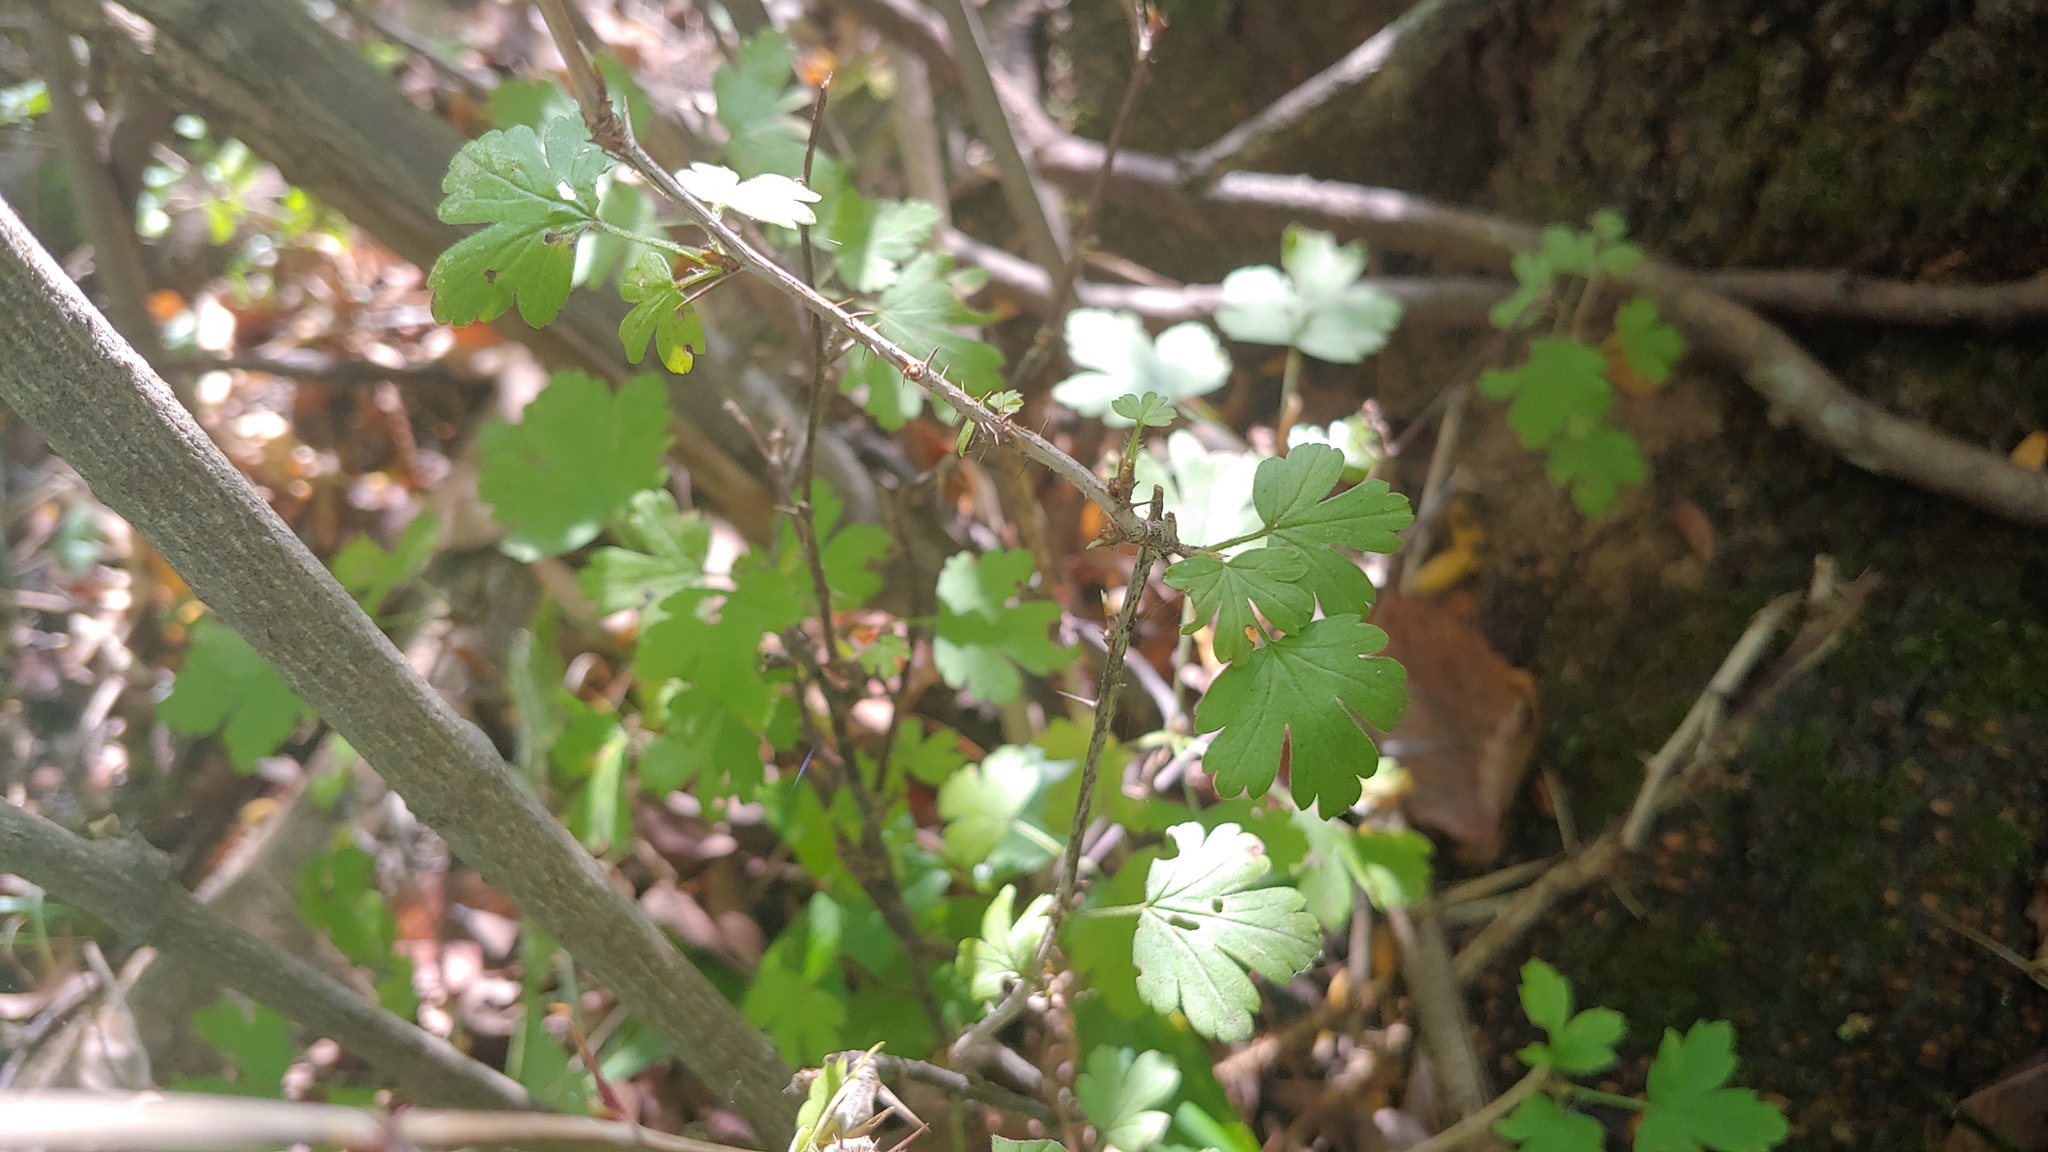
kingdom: Plantae
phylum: Tracheophyta
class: Magnoliopsida
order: Saxifragales
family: Grossulariaceae
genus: Ribes
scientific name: Ribes missouriense
